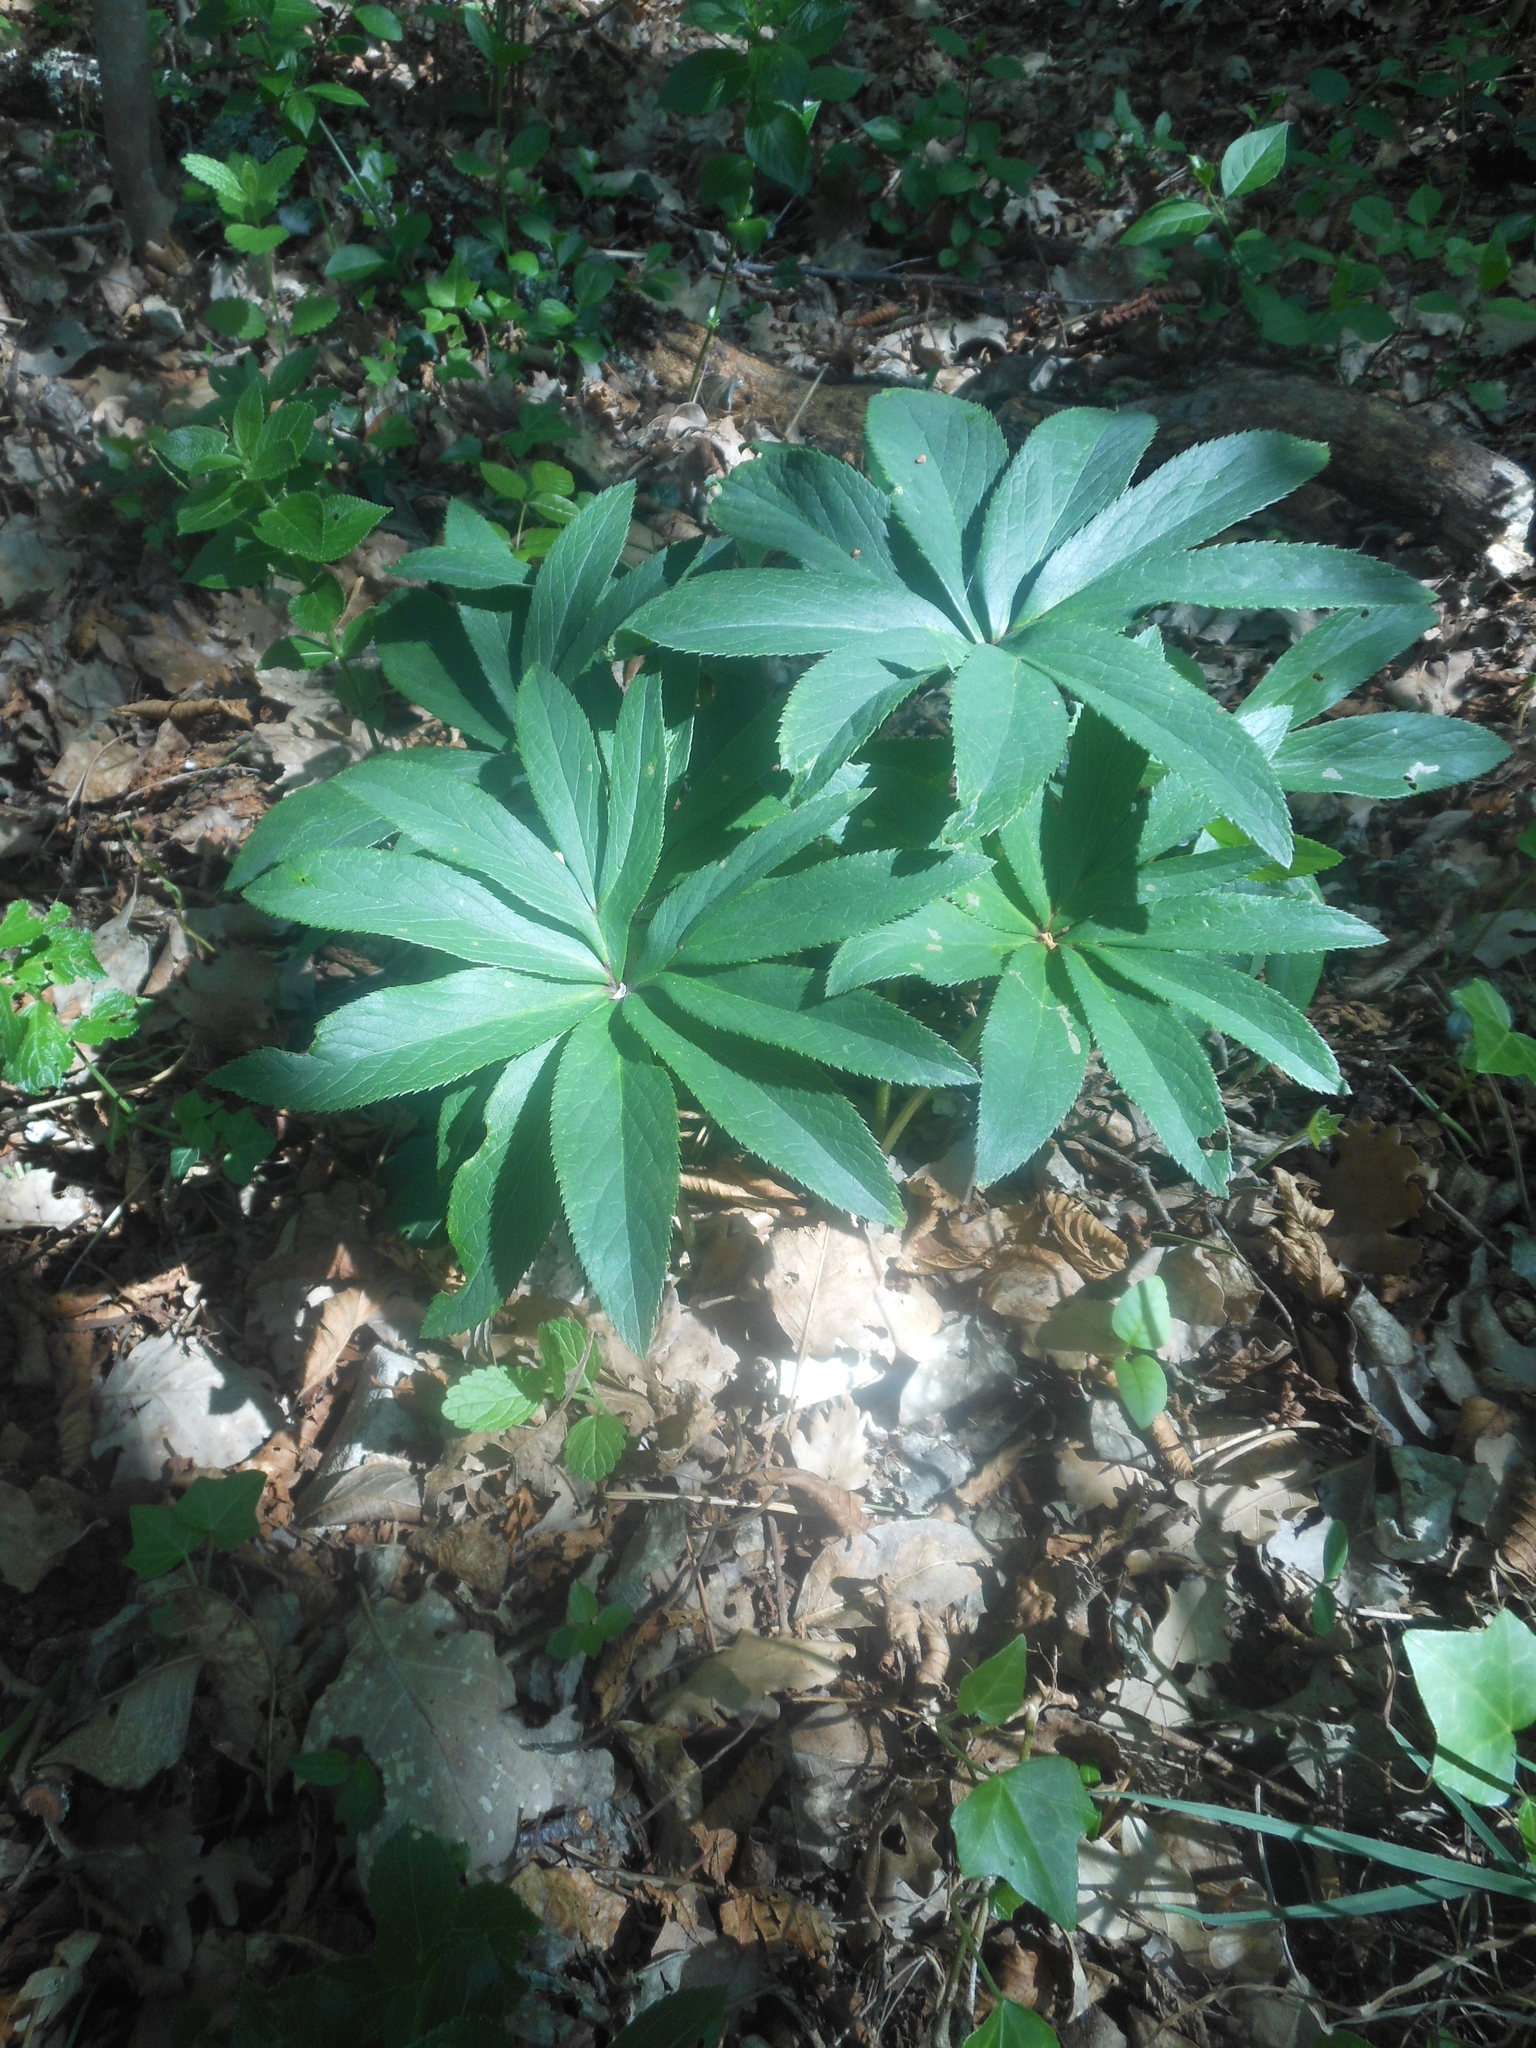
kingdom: Plantae
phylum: Tracheophyta
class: Magnoliopsida
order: Ranunculales
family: Ranunculaceae
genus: Helleborus
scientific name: Helleborus viridis
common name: Green hellebore
